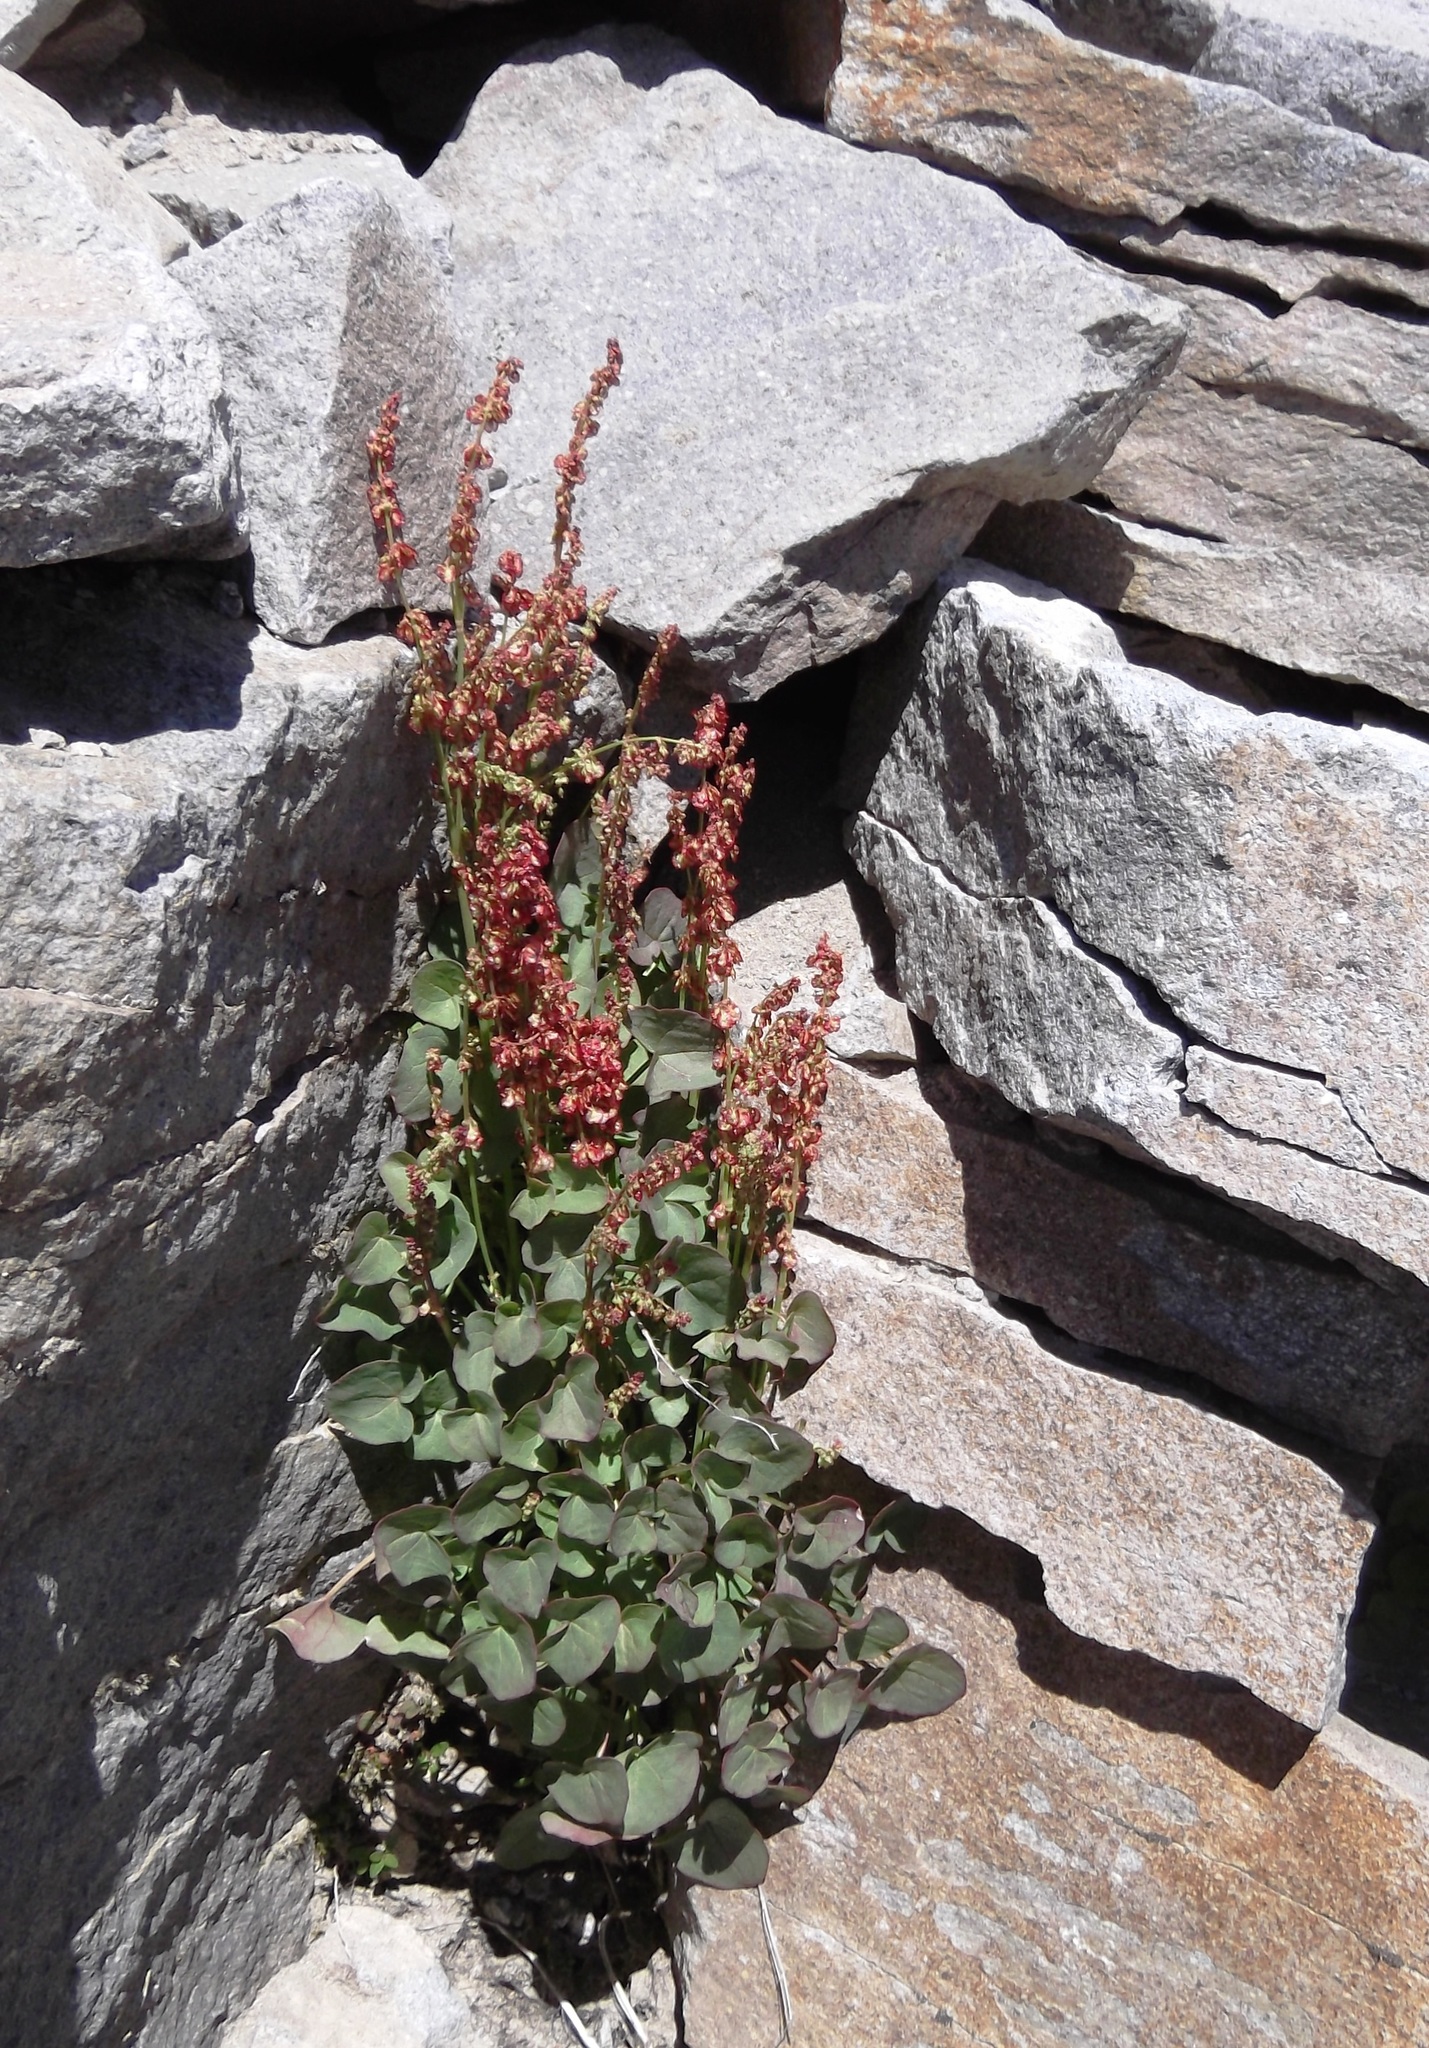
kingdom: Plantae
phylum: Tracheophyta
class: Magnoliopsida
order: Caryophyllales
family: Polygonaceae
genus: Oxyria
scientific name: Oxyria digyna
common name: Alpine mountain-sorrel
